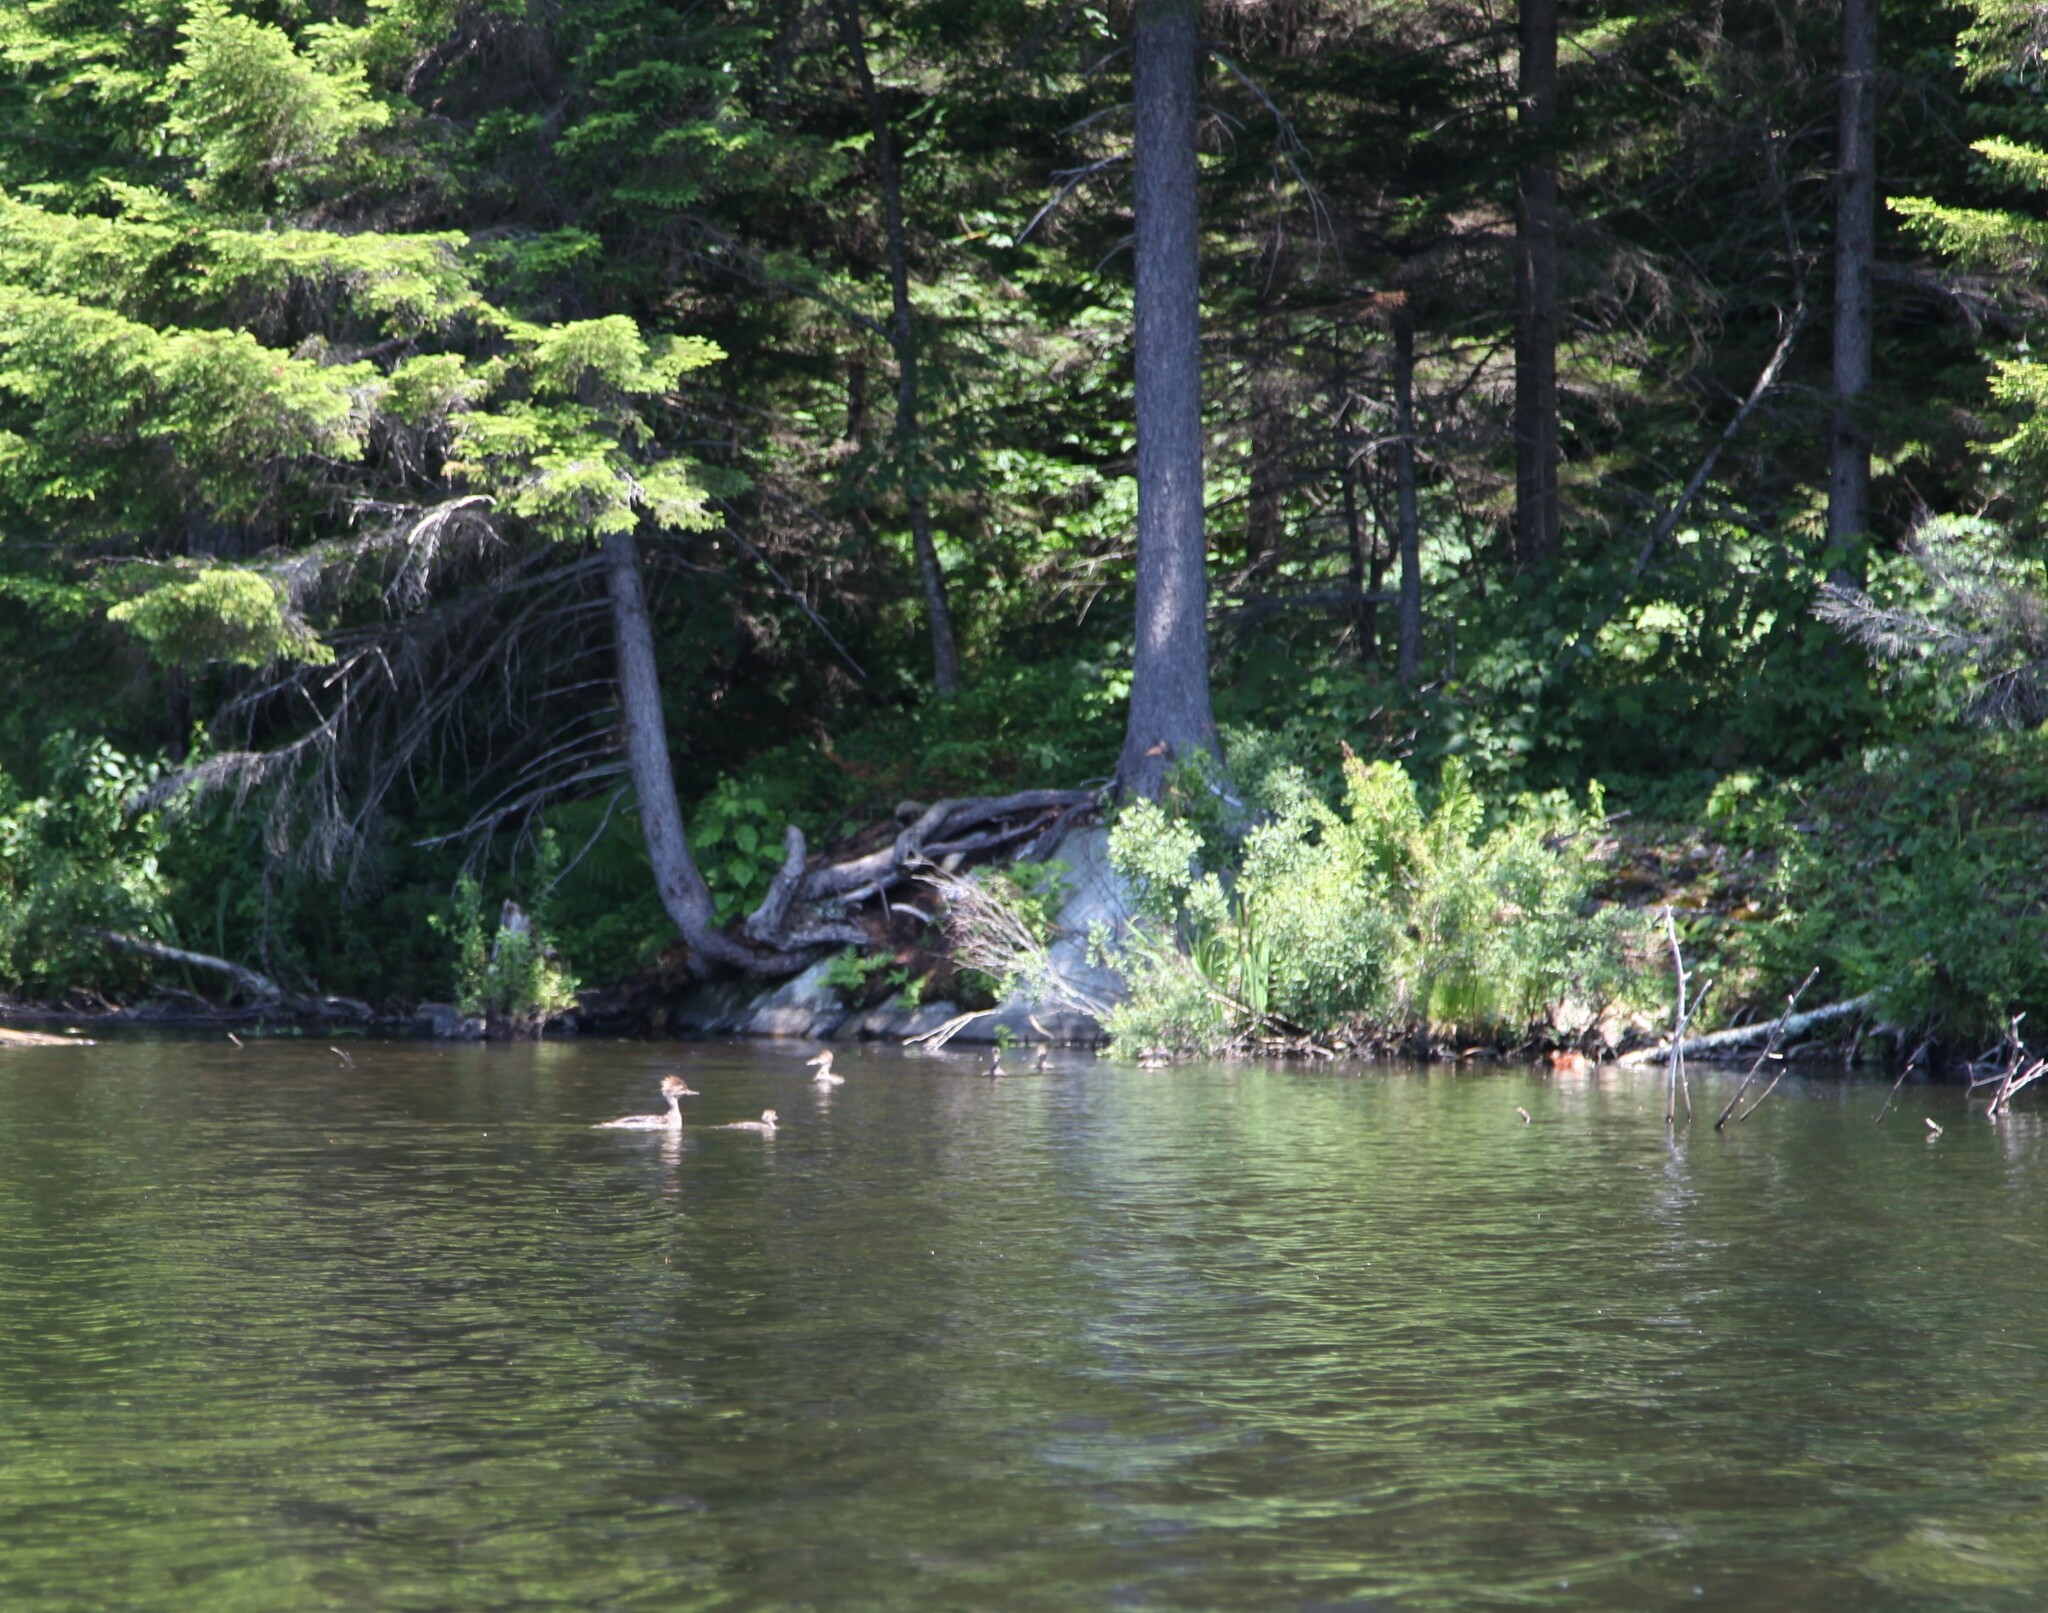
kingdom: Animalia
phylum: Chordata
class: Aves
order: Anseriformes
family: Anatidae
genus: Mergus
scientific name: Mergus merganser
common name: Common merganser
